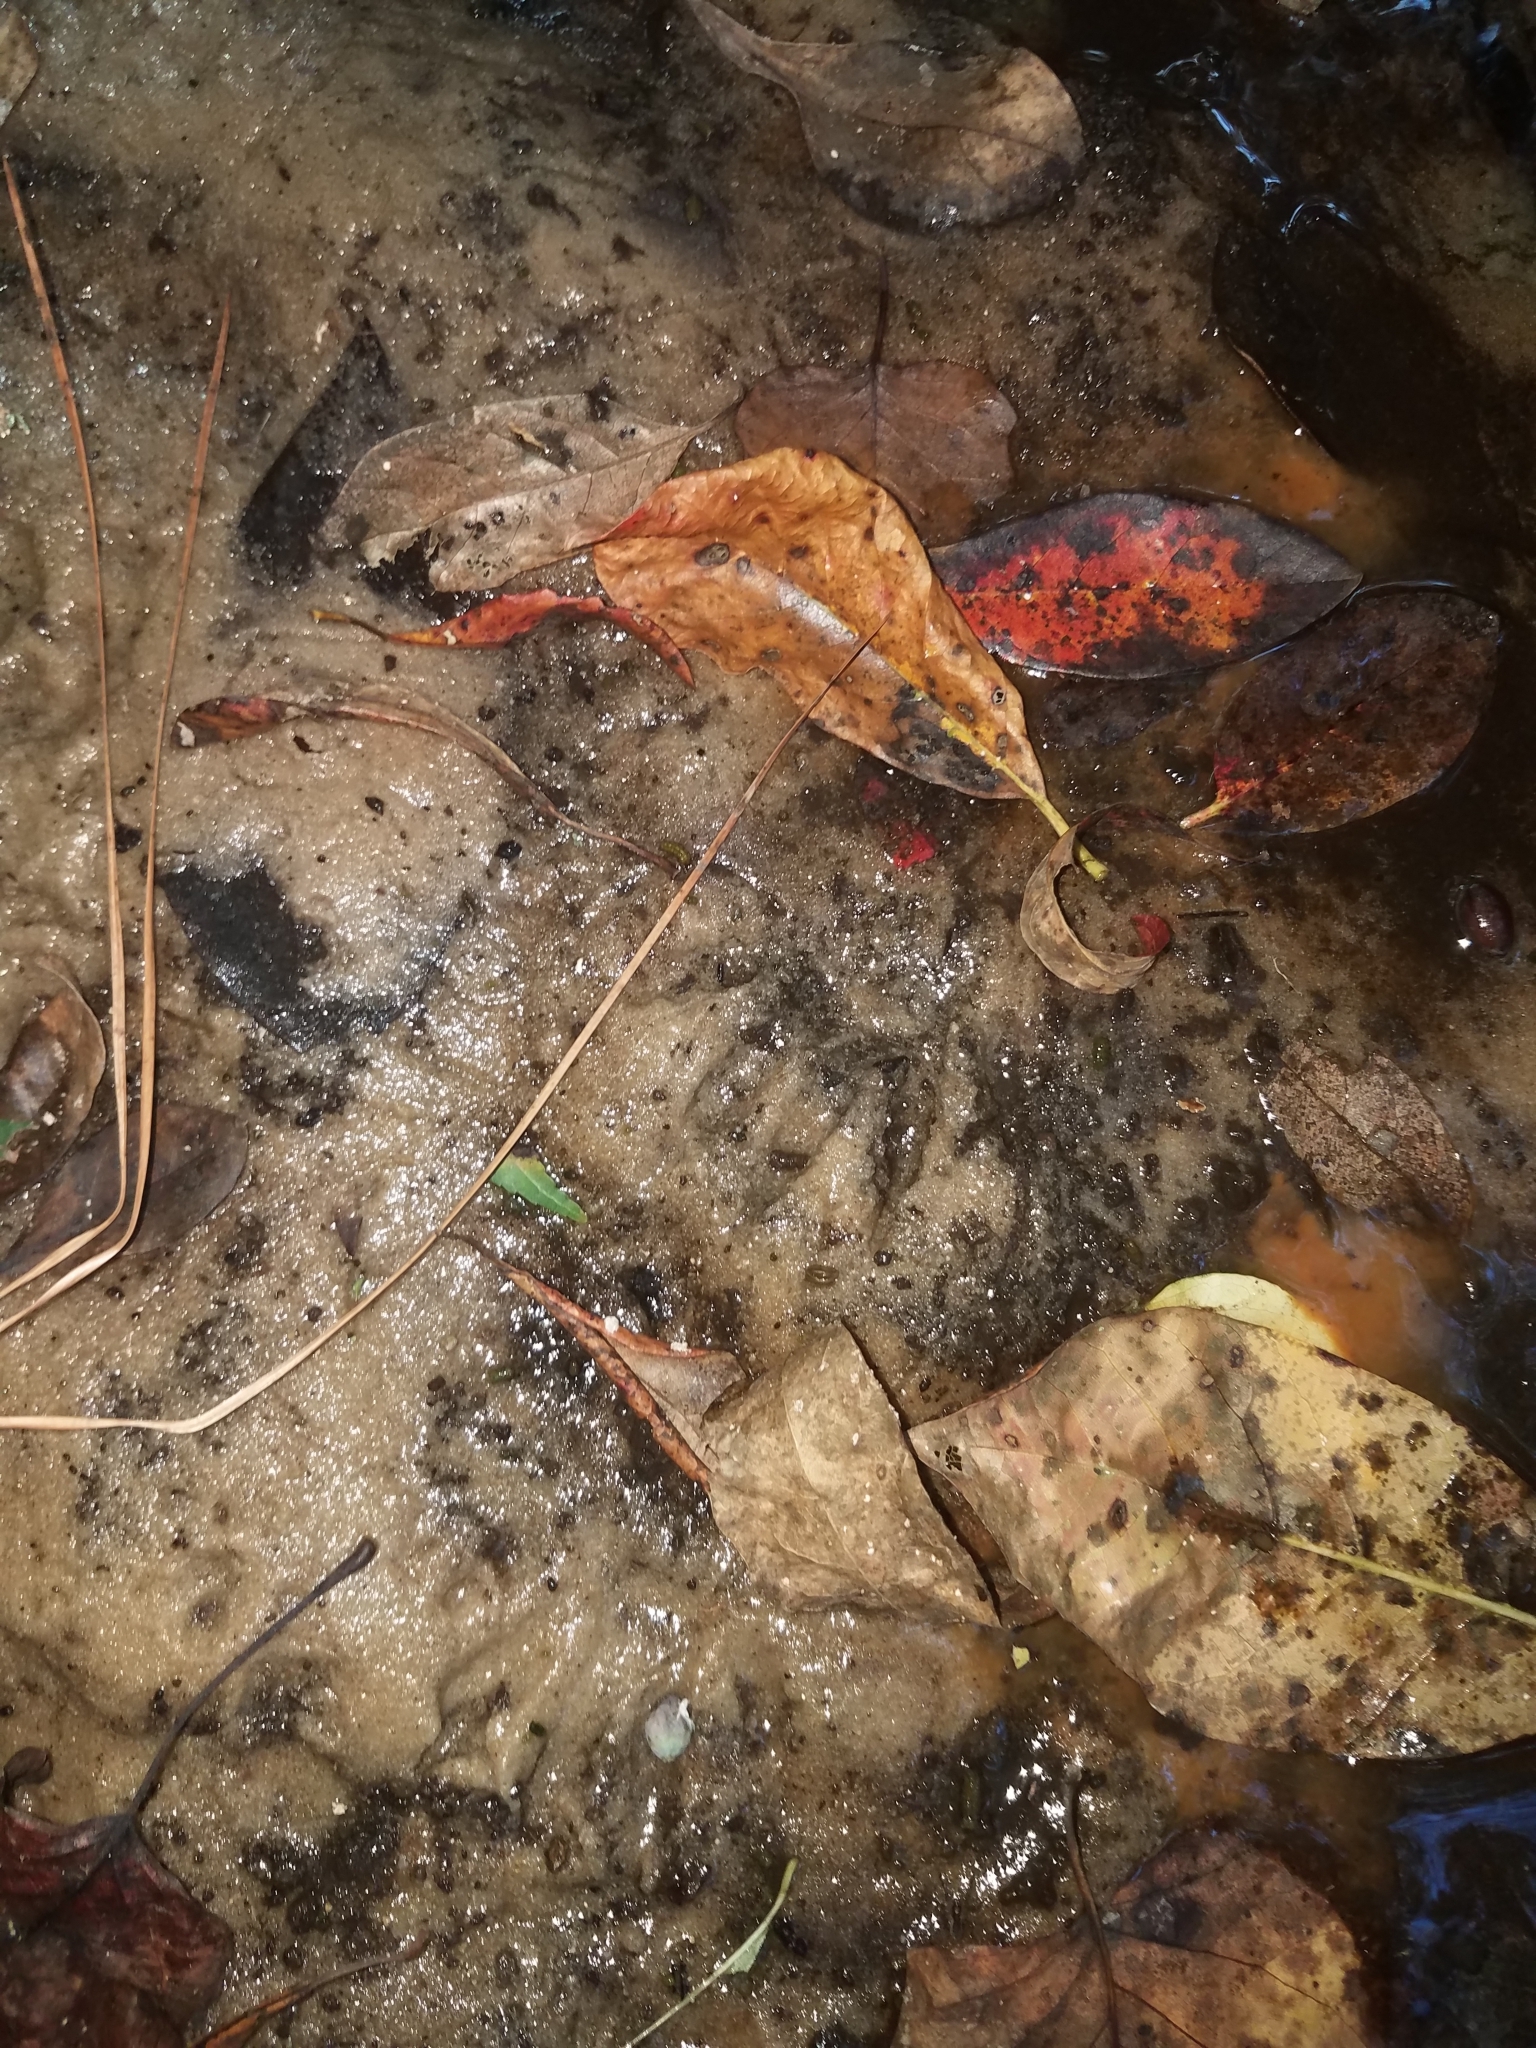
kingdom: Animalia
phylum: Chordata
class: Mammalia
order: Carnivora
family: Procyonidae
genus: Procyon
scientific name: Procyon lotor
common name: Raccoon
